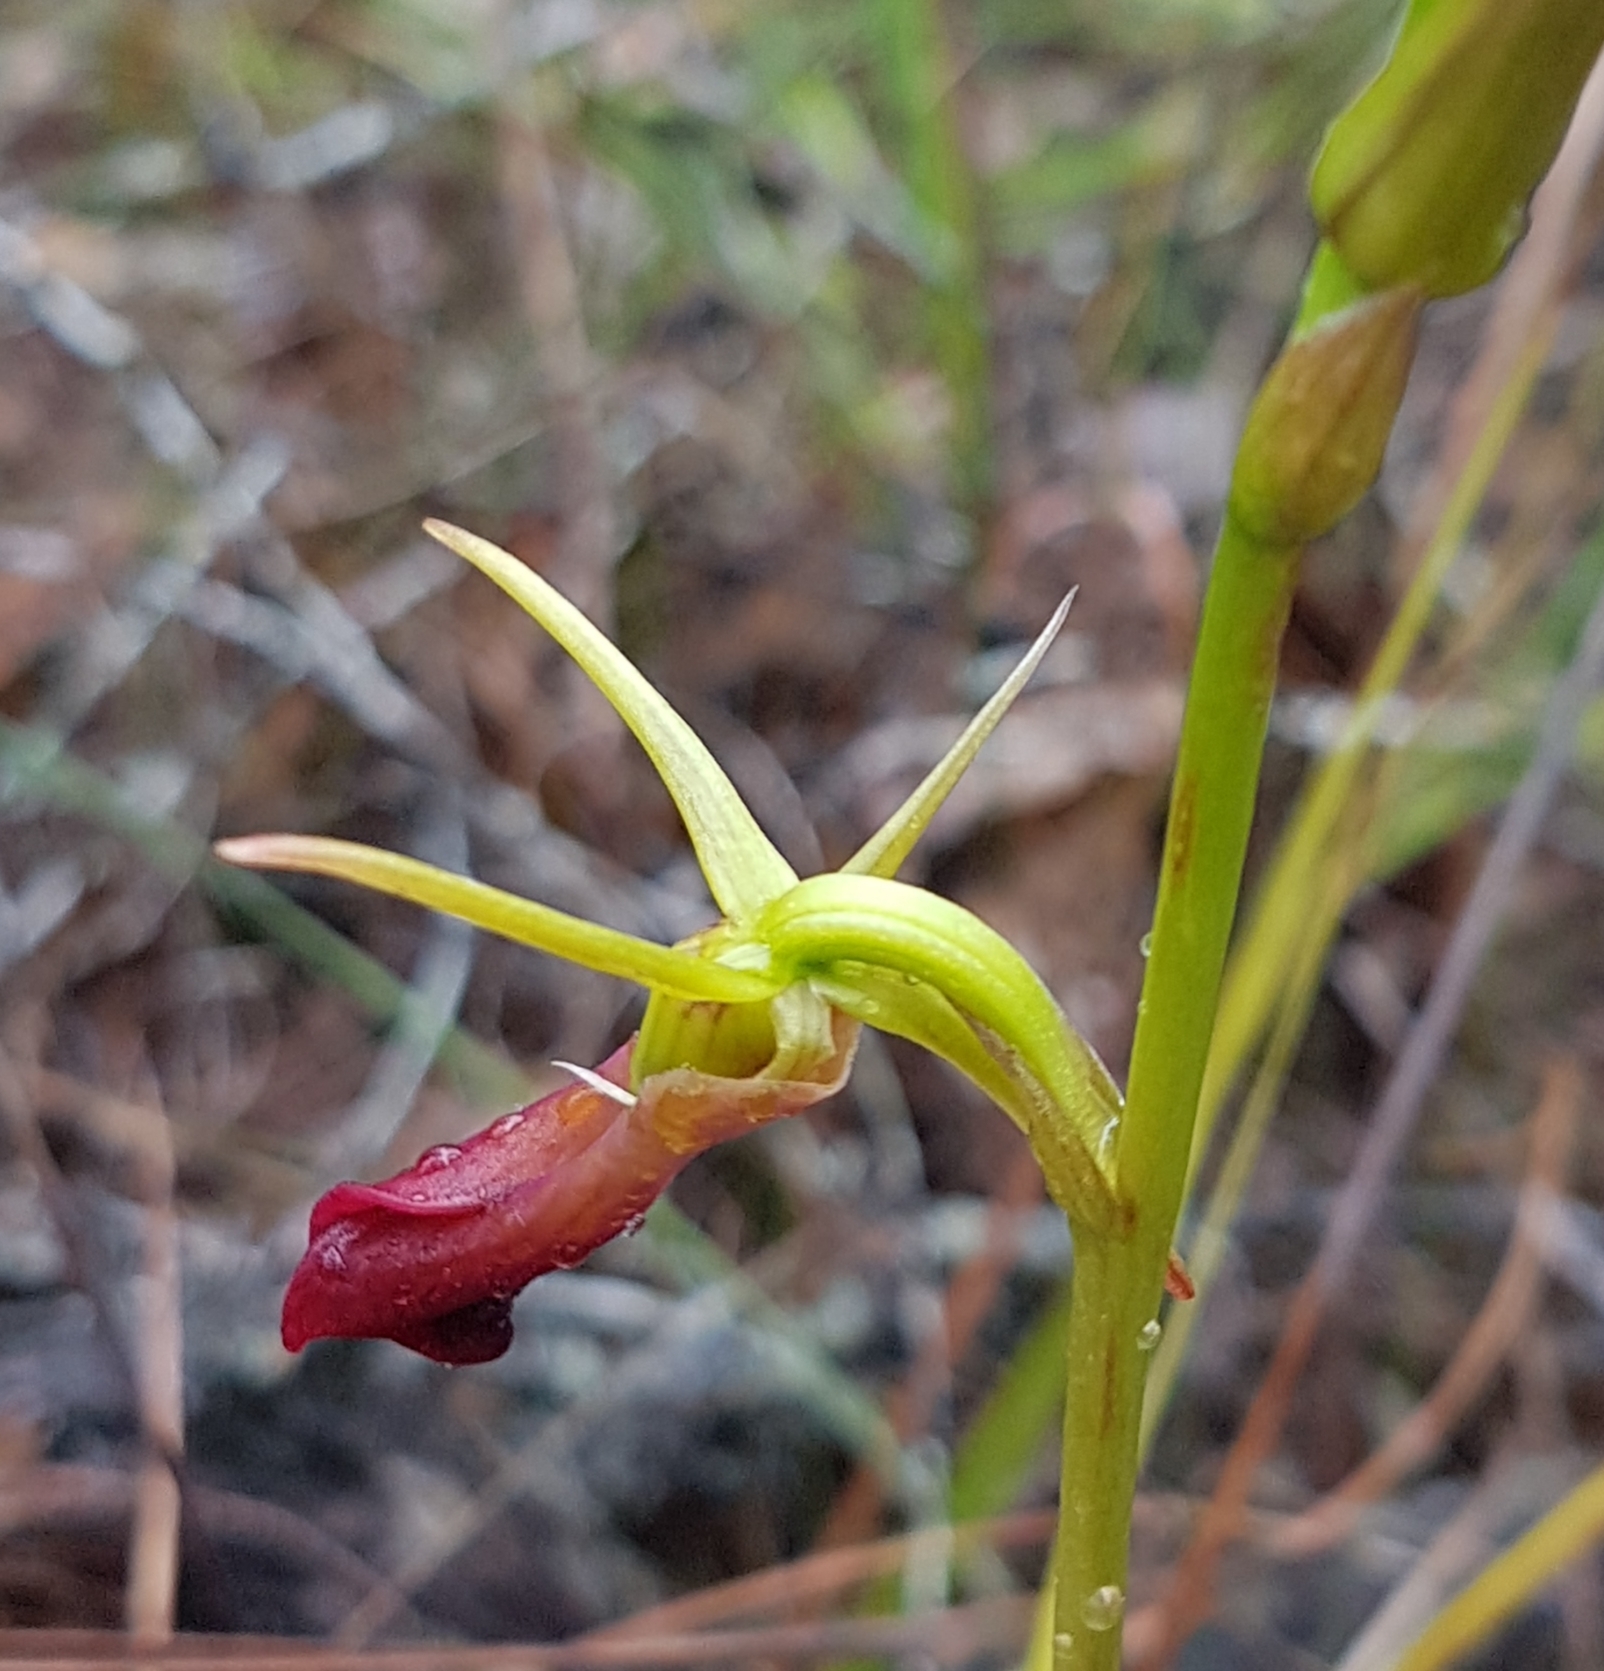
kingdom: Plantae
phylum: Tracheophyta
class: Liliopsida
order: Asparagales
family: Orchidaceae
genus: Cryptostylis
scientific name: Cryptostylis subulata
